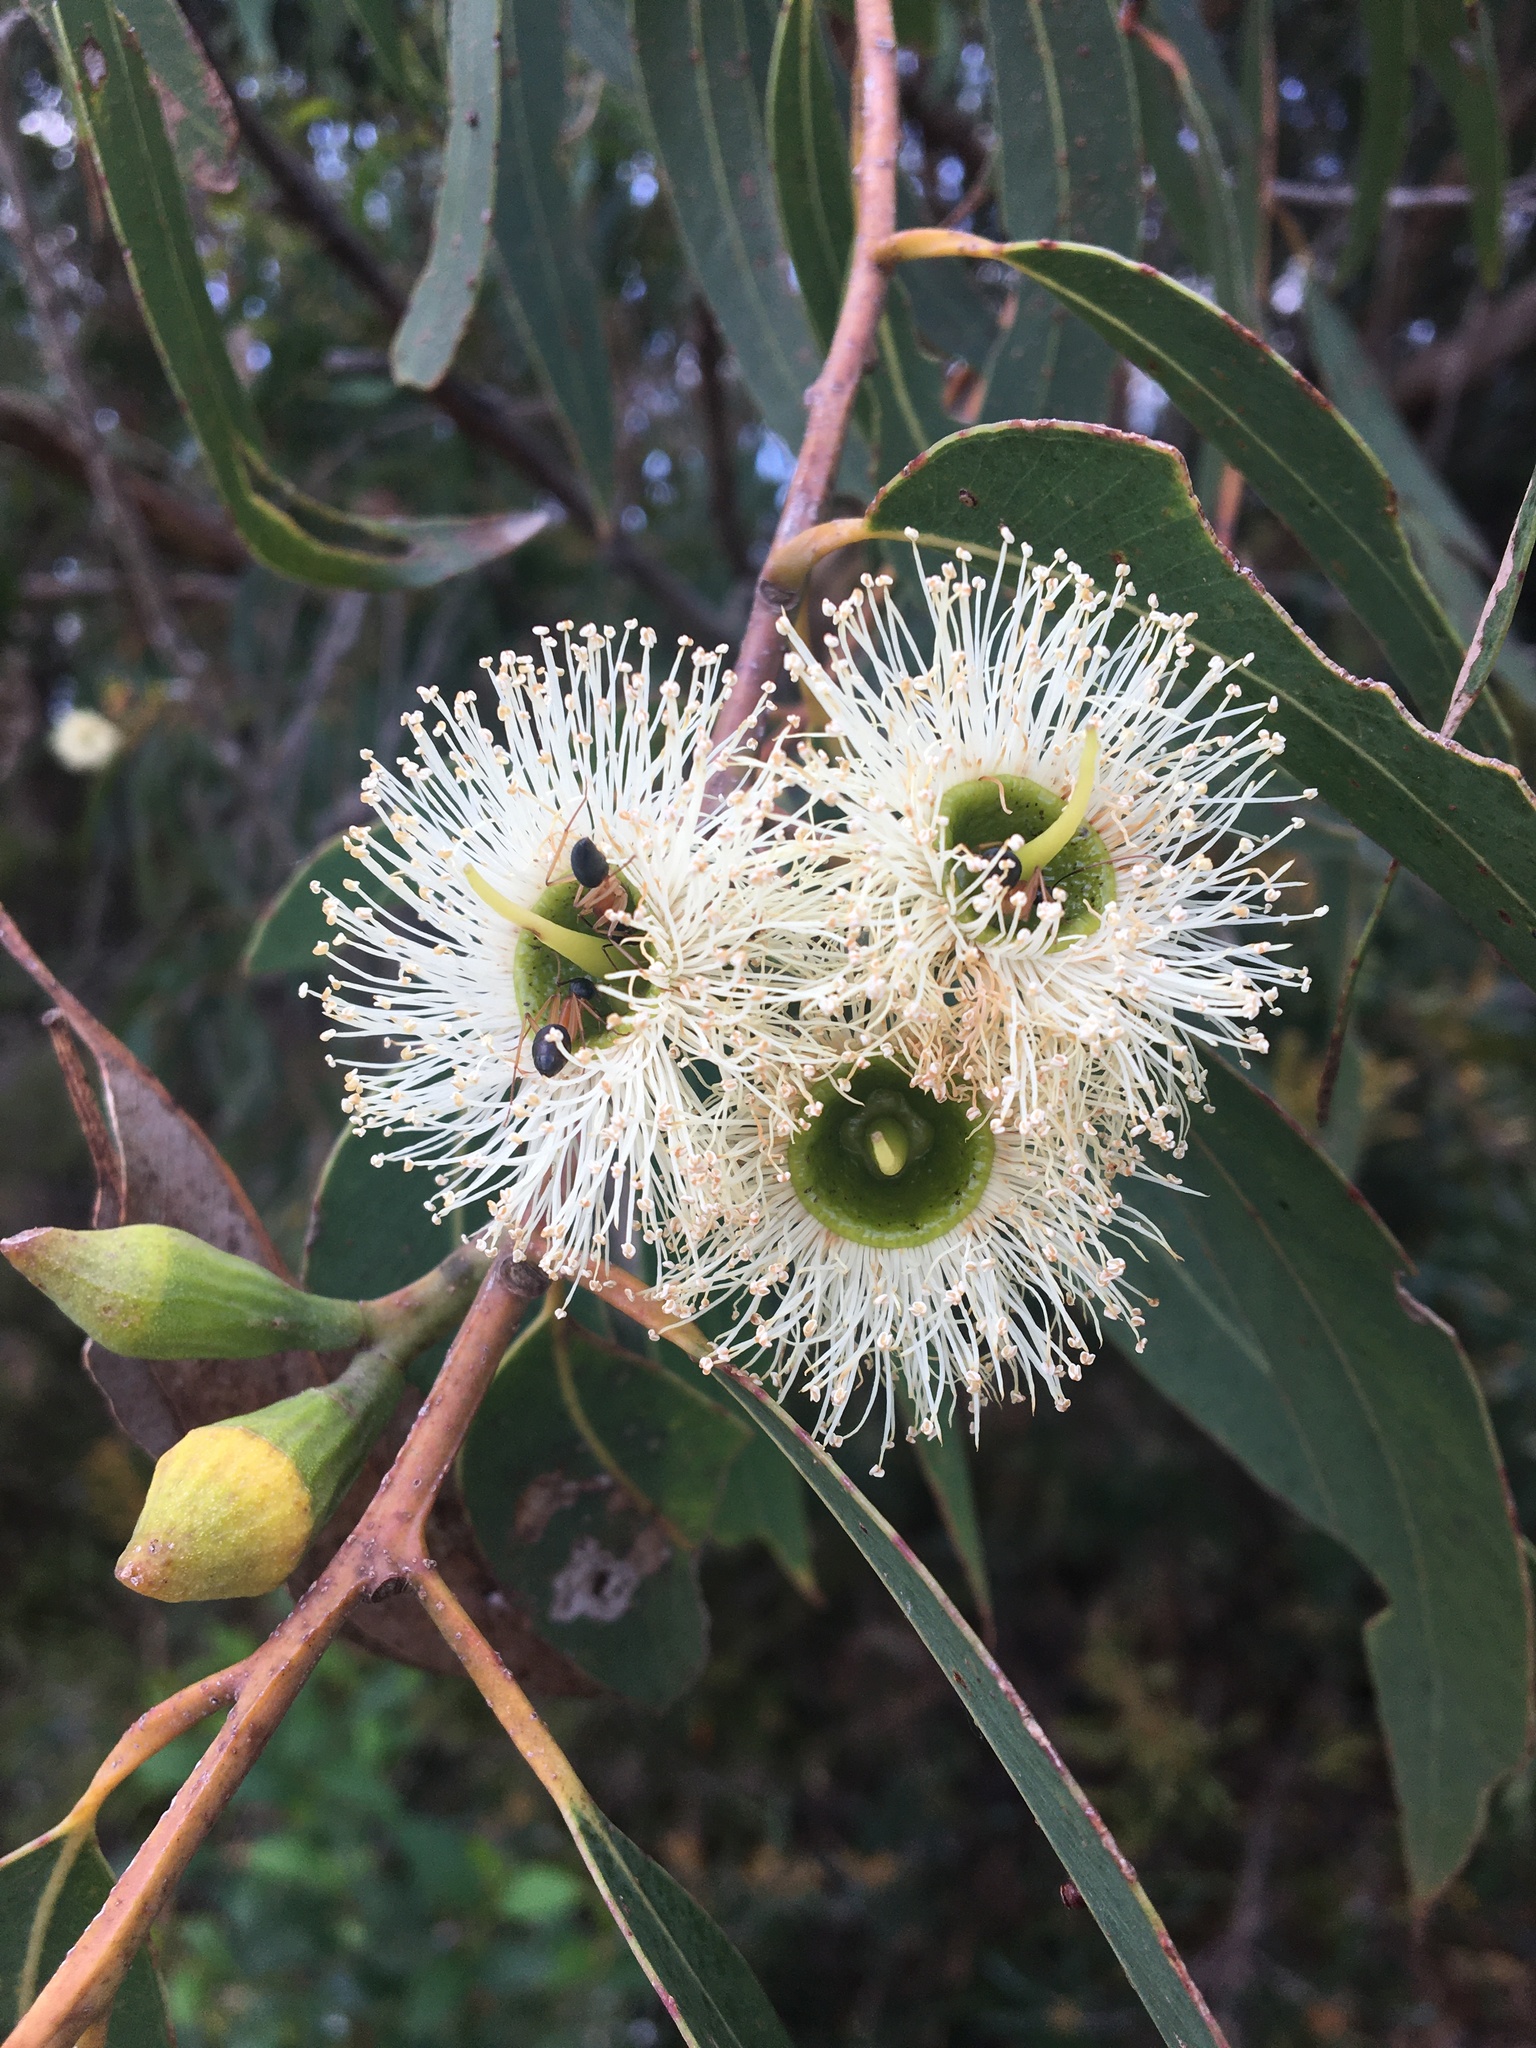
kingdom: Plantae
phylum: Tracheophyta
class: Magnoliopsida
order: Myrtales
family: Myrtaceae
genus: Eucalyptus
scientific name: Eucalyptus planchoniana
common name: Bastard-tallow-wood
